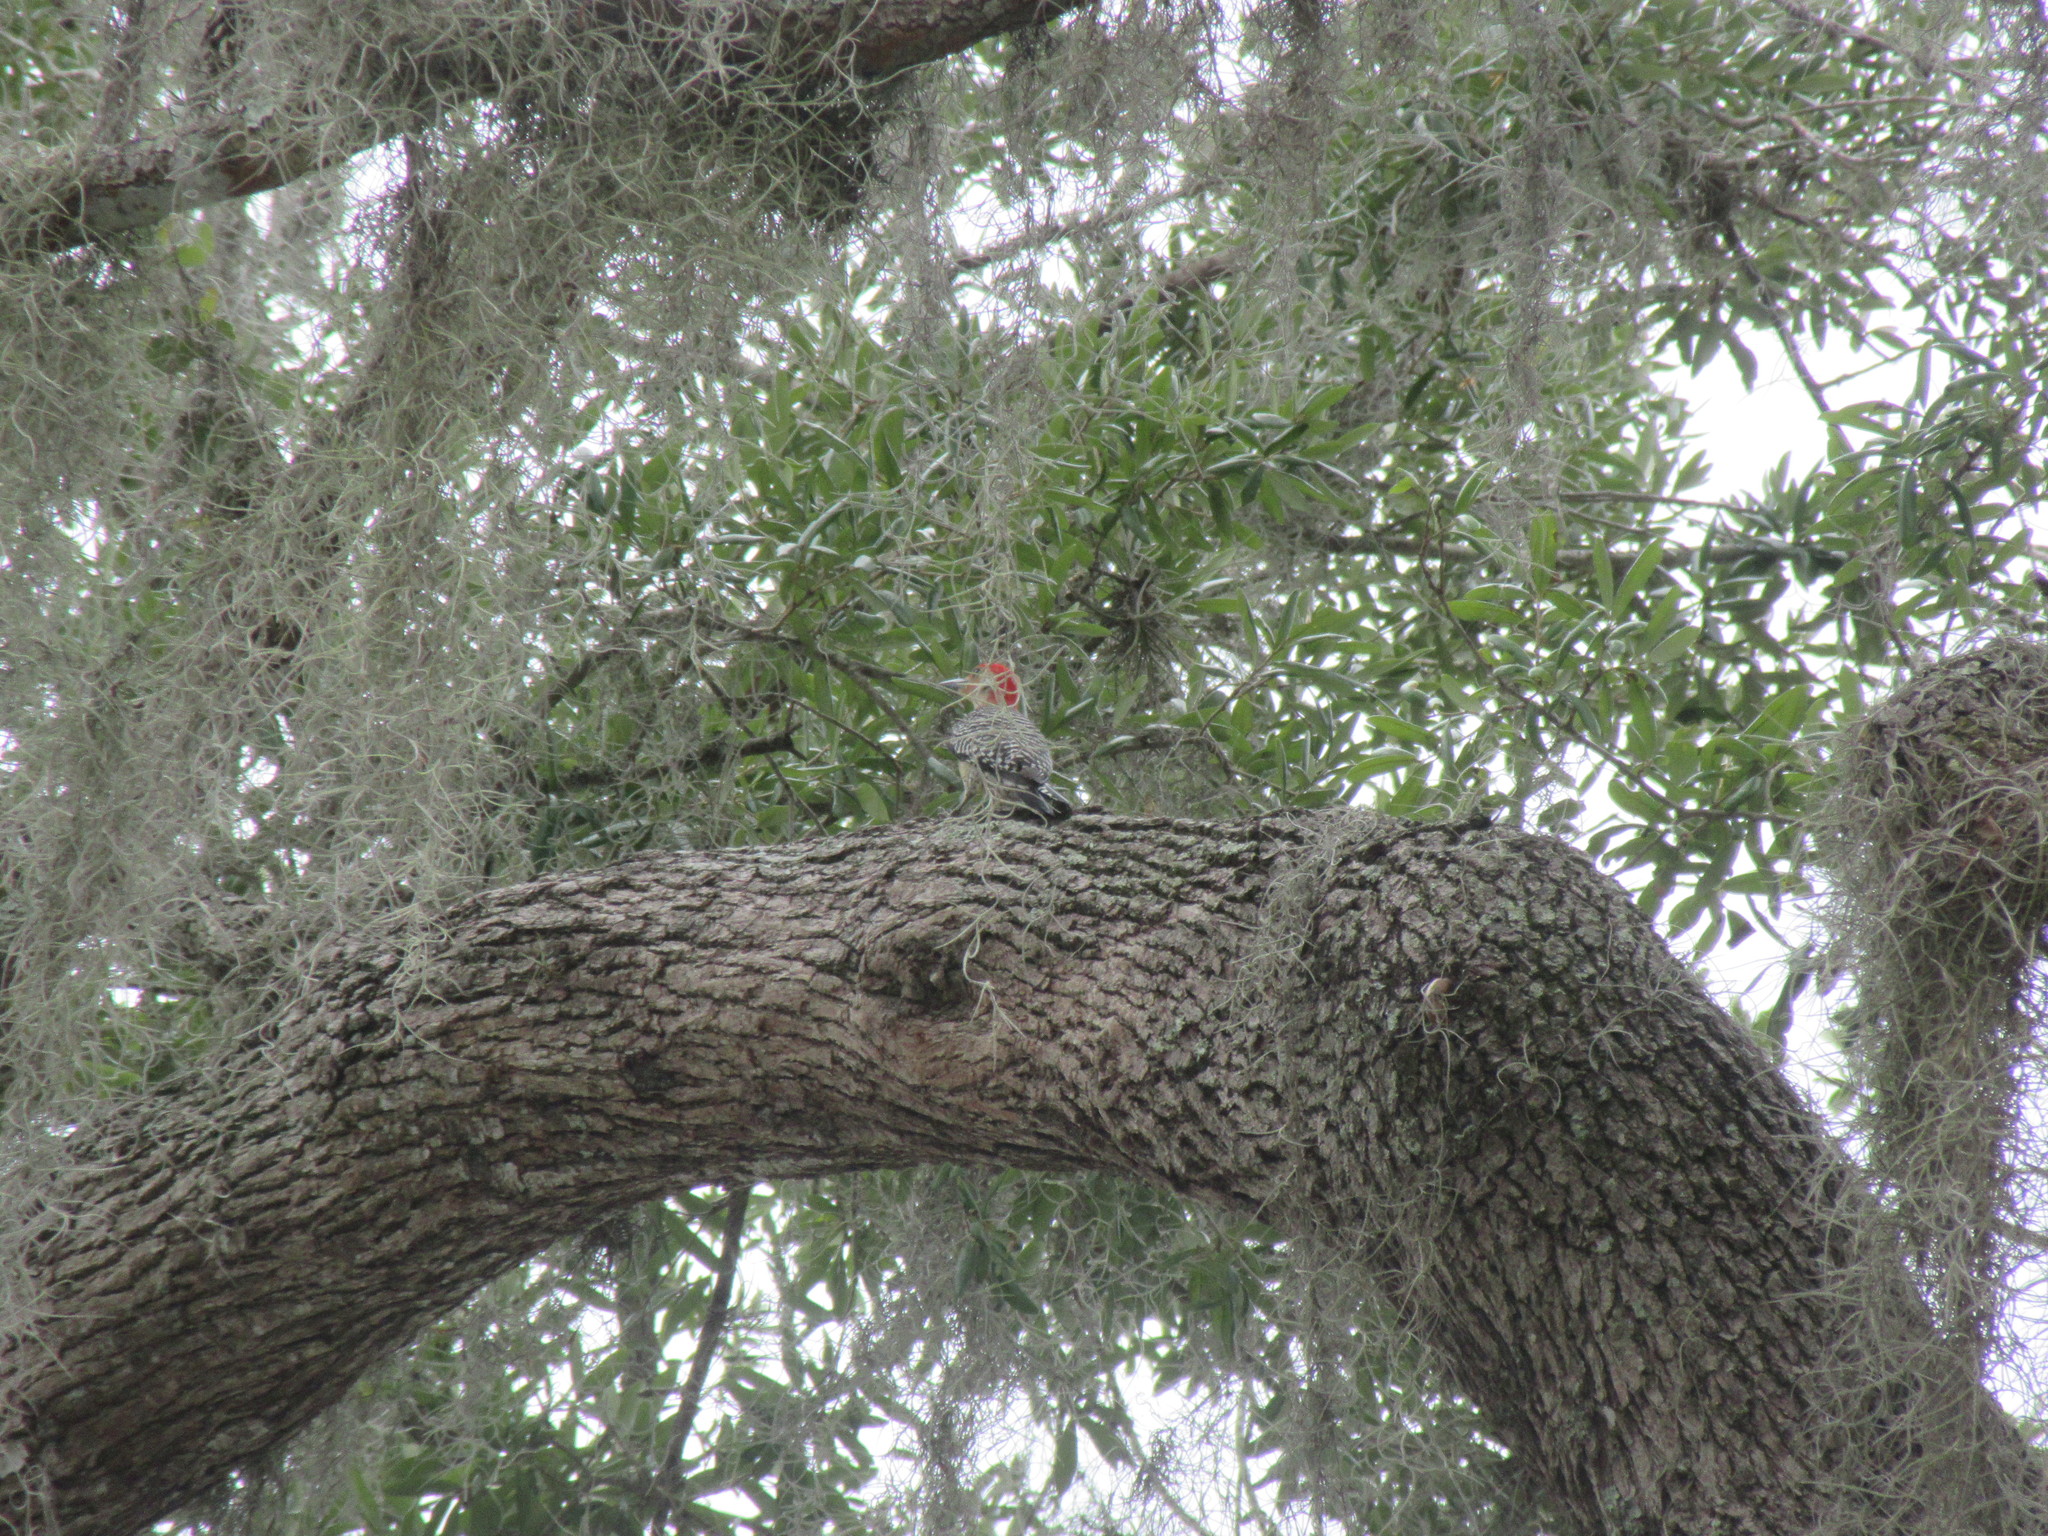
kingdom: Animalia
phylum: Chordata
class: Aves
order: Piciformes
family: Picidae
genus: Melanerpes
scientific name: Melanerpes carolinus
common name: Red-bellied woodpecker
